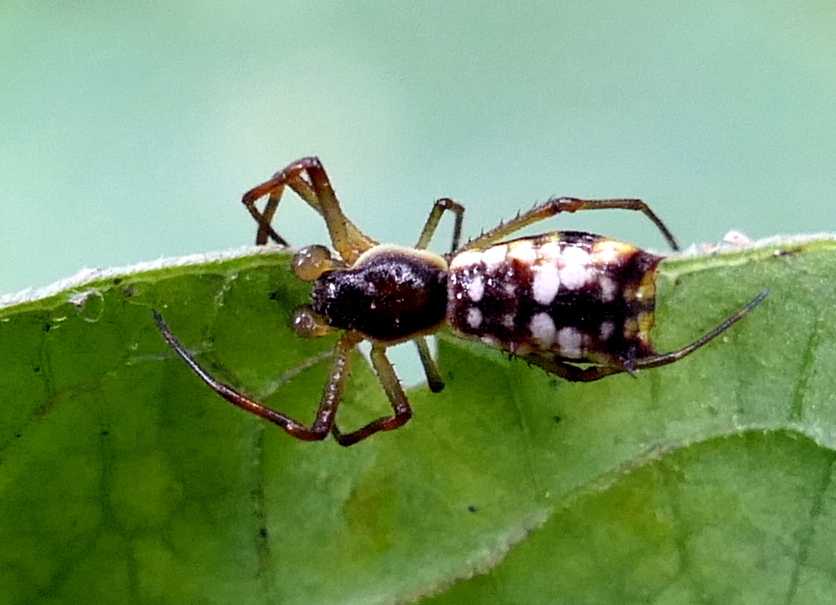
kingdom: Animalia
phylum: Arthropoda
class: Arachnida
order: Araneae
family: Araneidae
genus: Micrathena
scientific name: Micrathena fissispina
